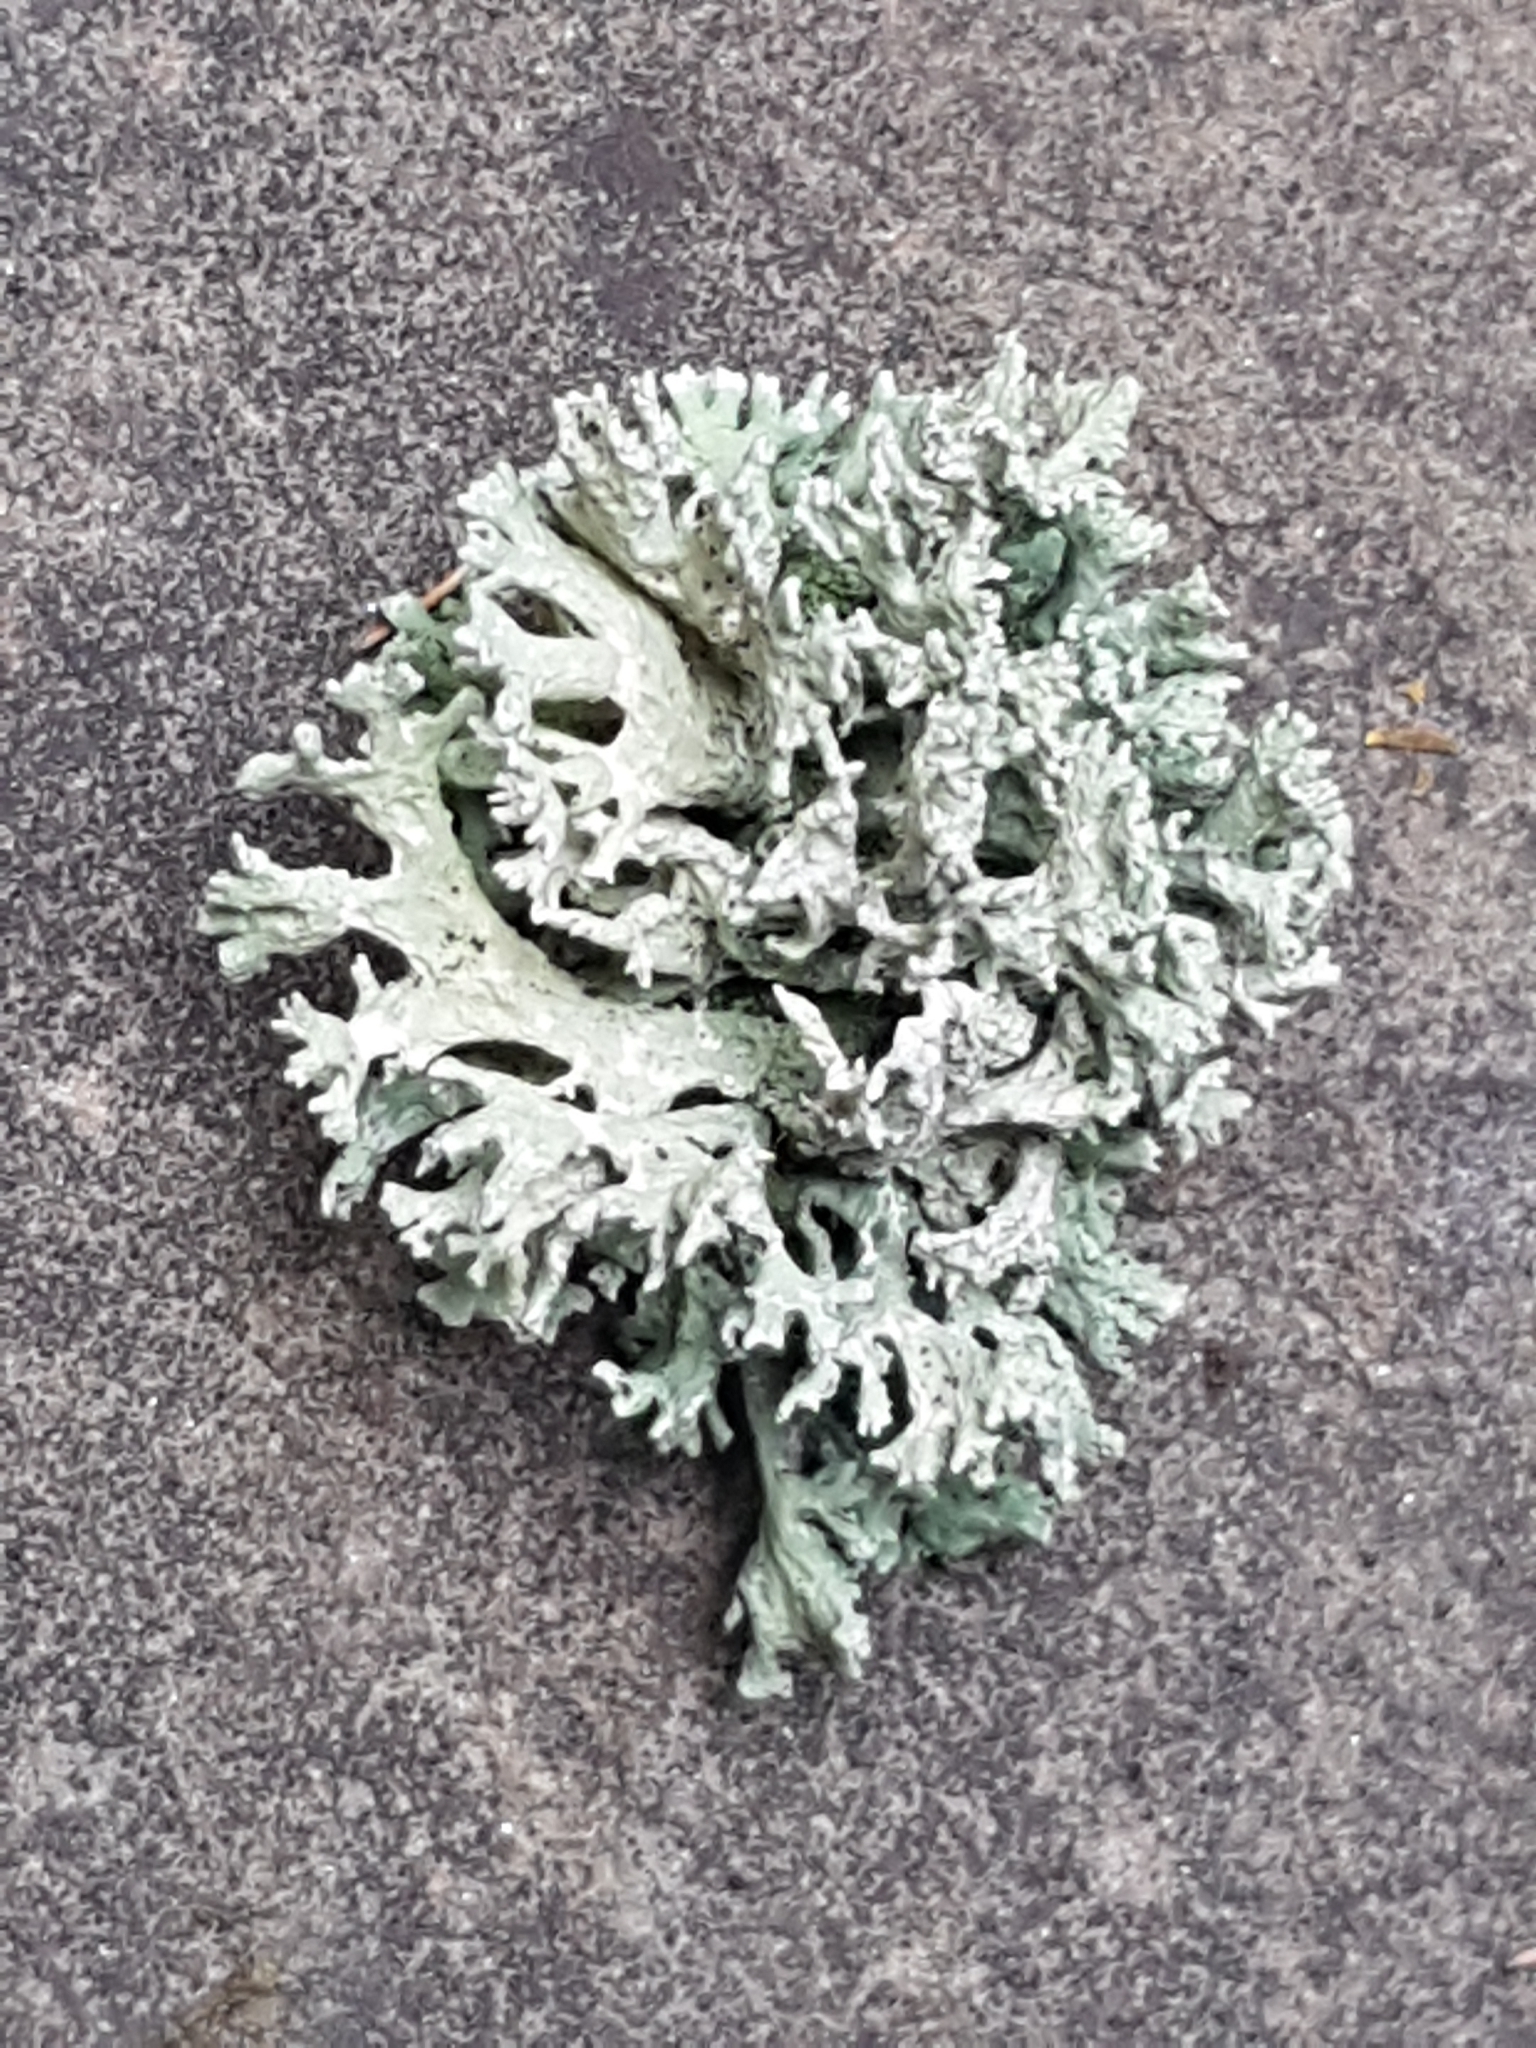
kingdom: Fungi
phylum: Ascomycota
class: Lecanoromycetes
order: Lecanorales
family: Parmeliaceae
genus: Evernia
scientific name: Evernia prunastri
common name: Oak moss
